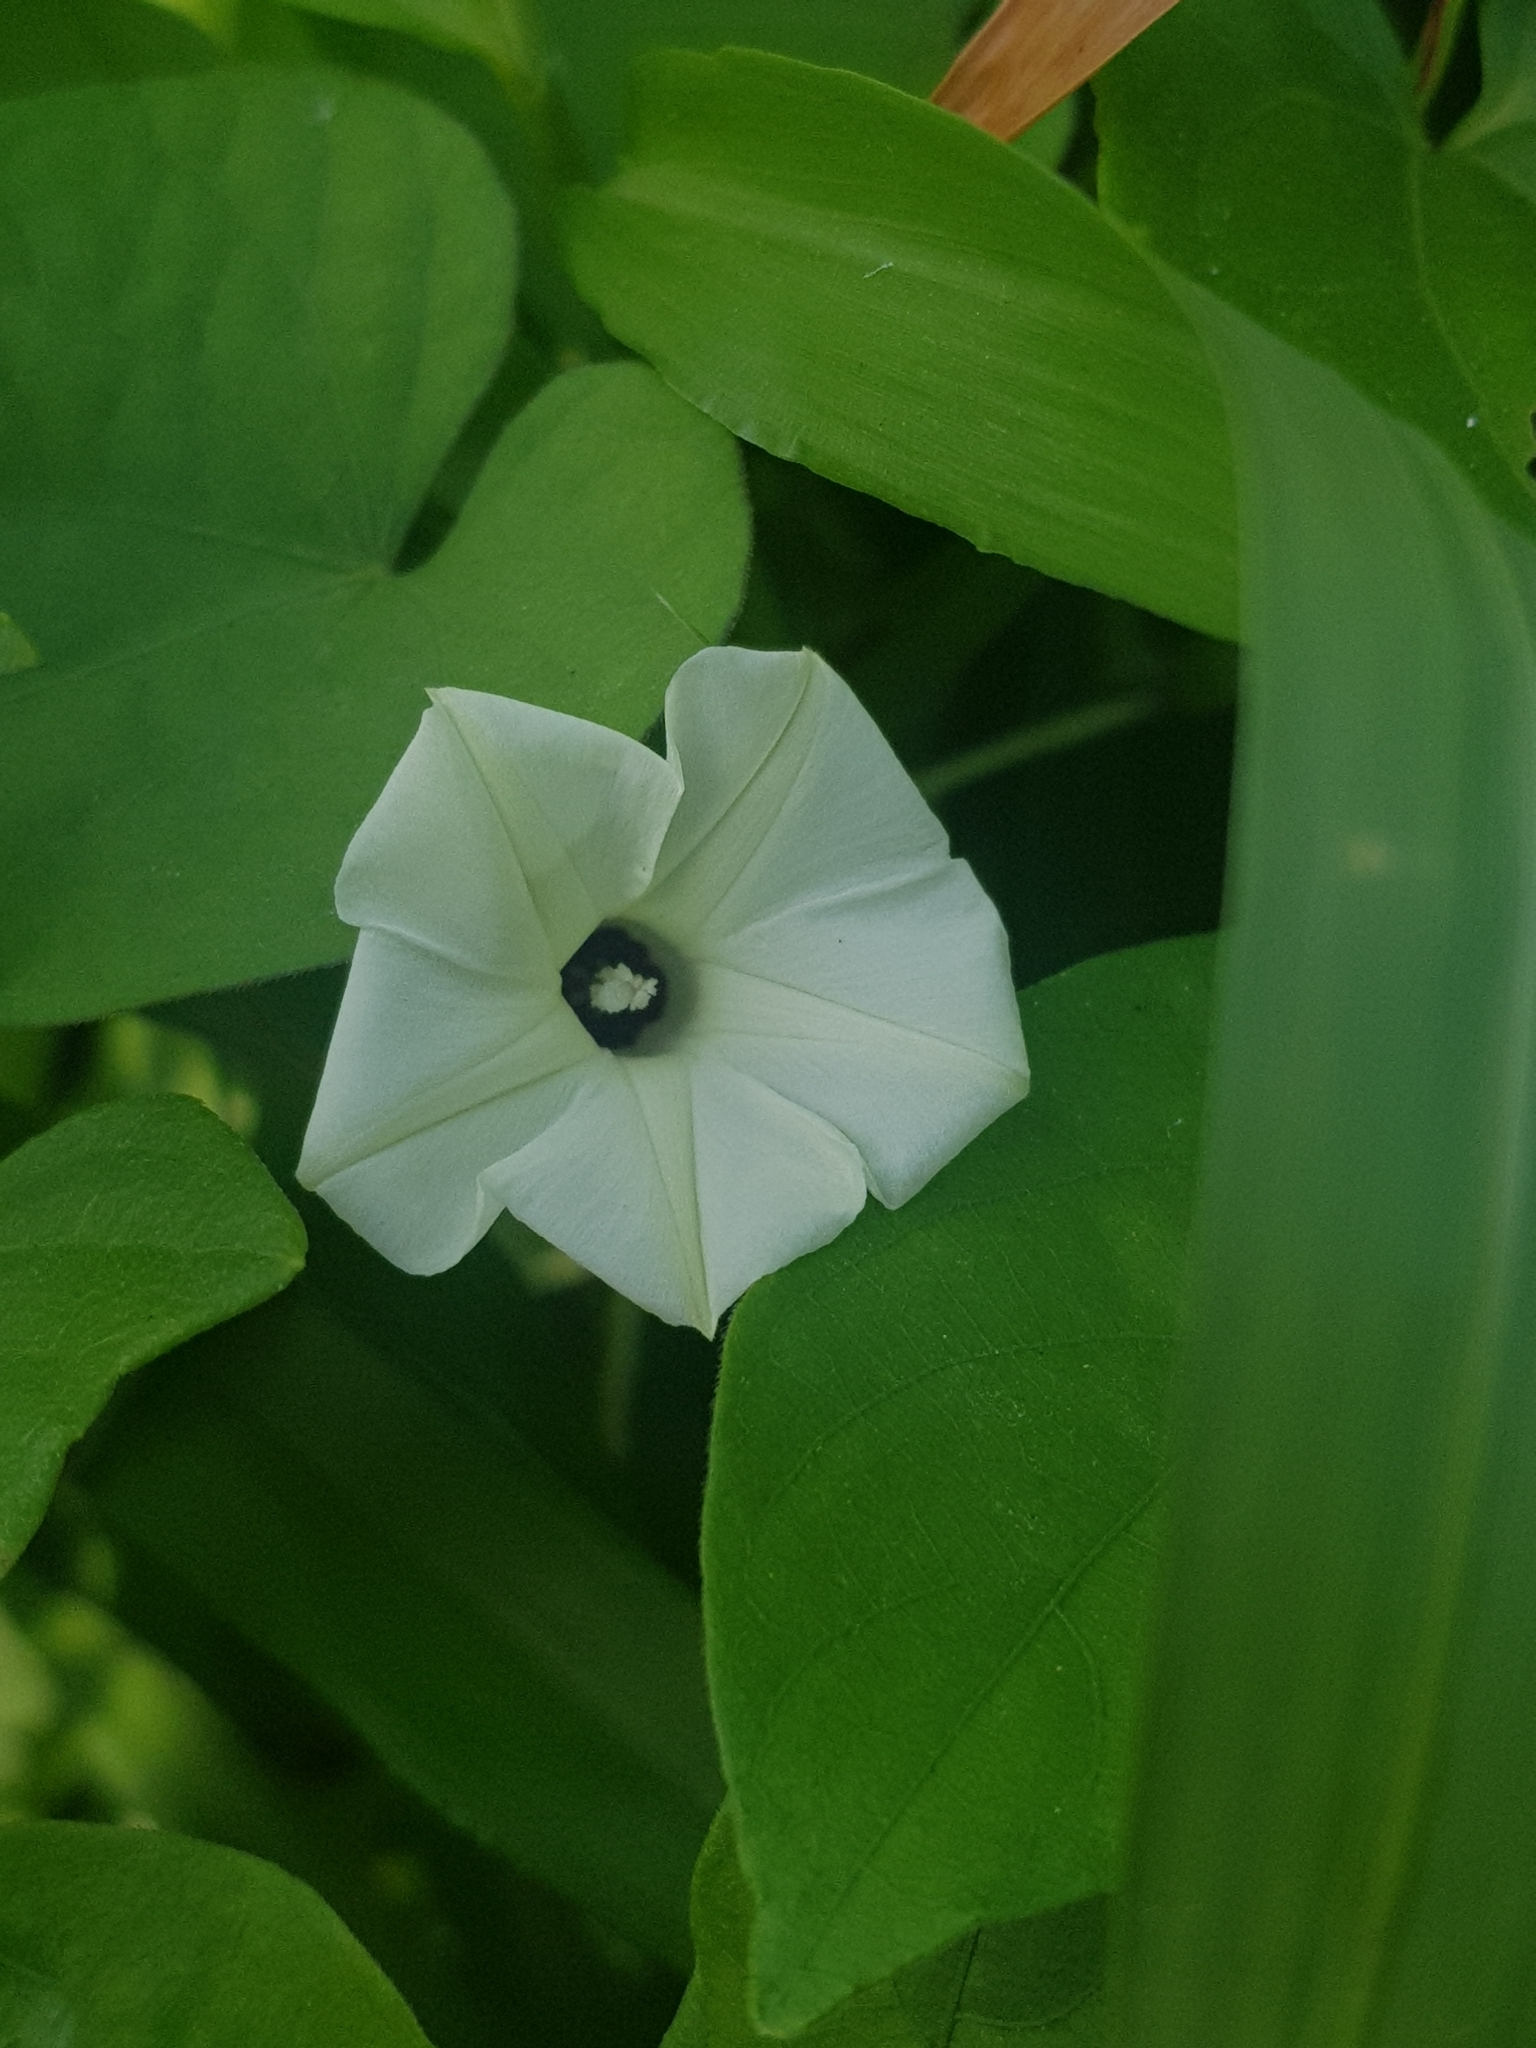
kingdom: Plantae
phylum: Tracheophyta
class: Magnoliopsida
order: Solanales
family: Convolvulaceae
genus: Ipomoea
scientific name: Ipomoea obscura
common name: Obscure morning-glory
